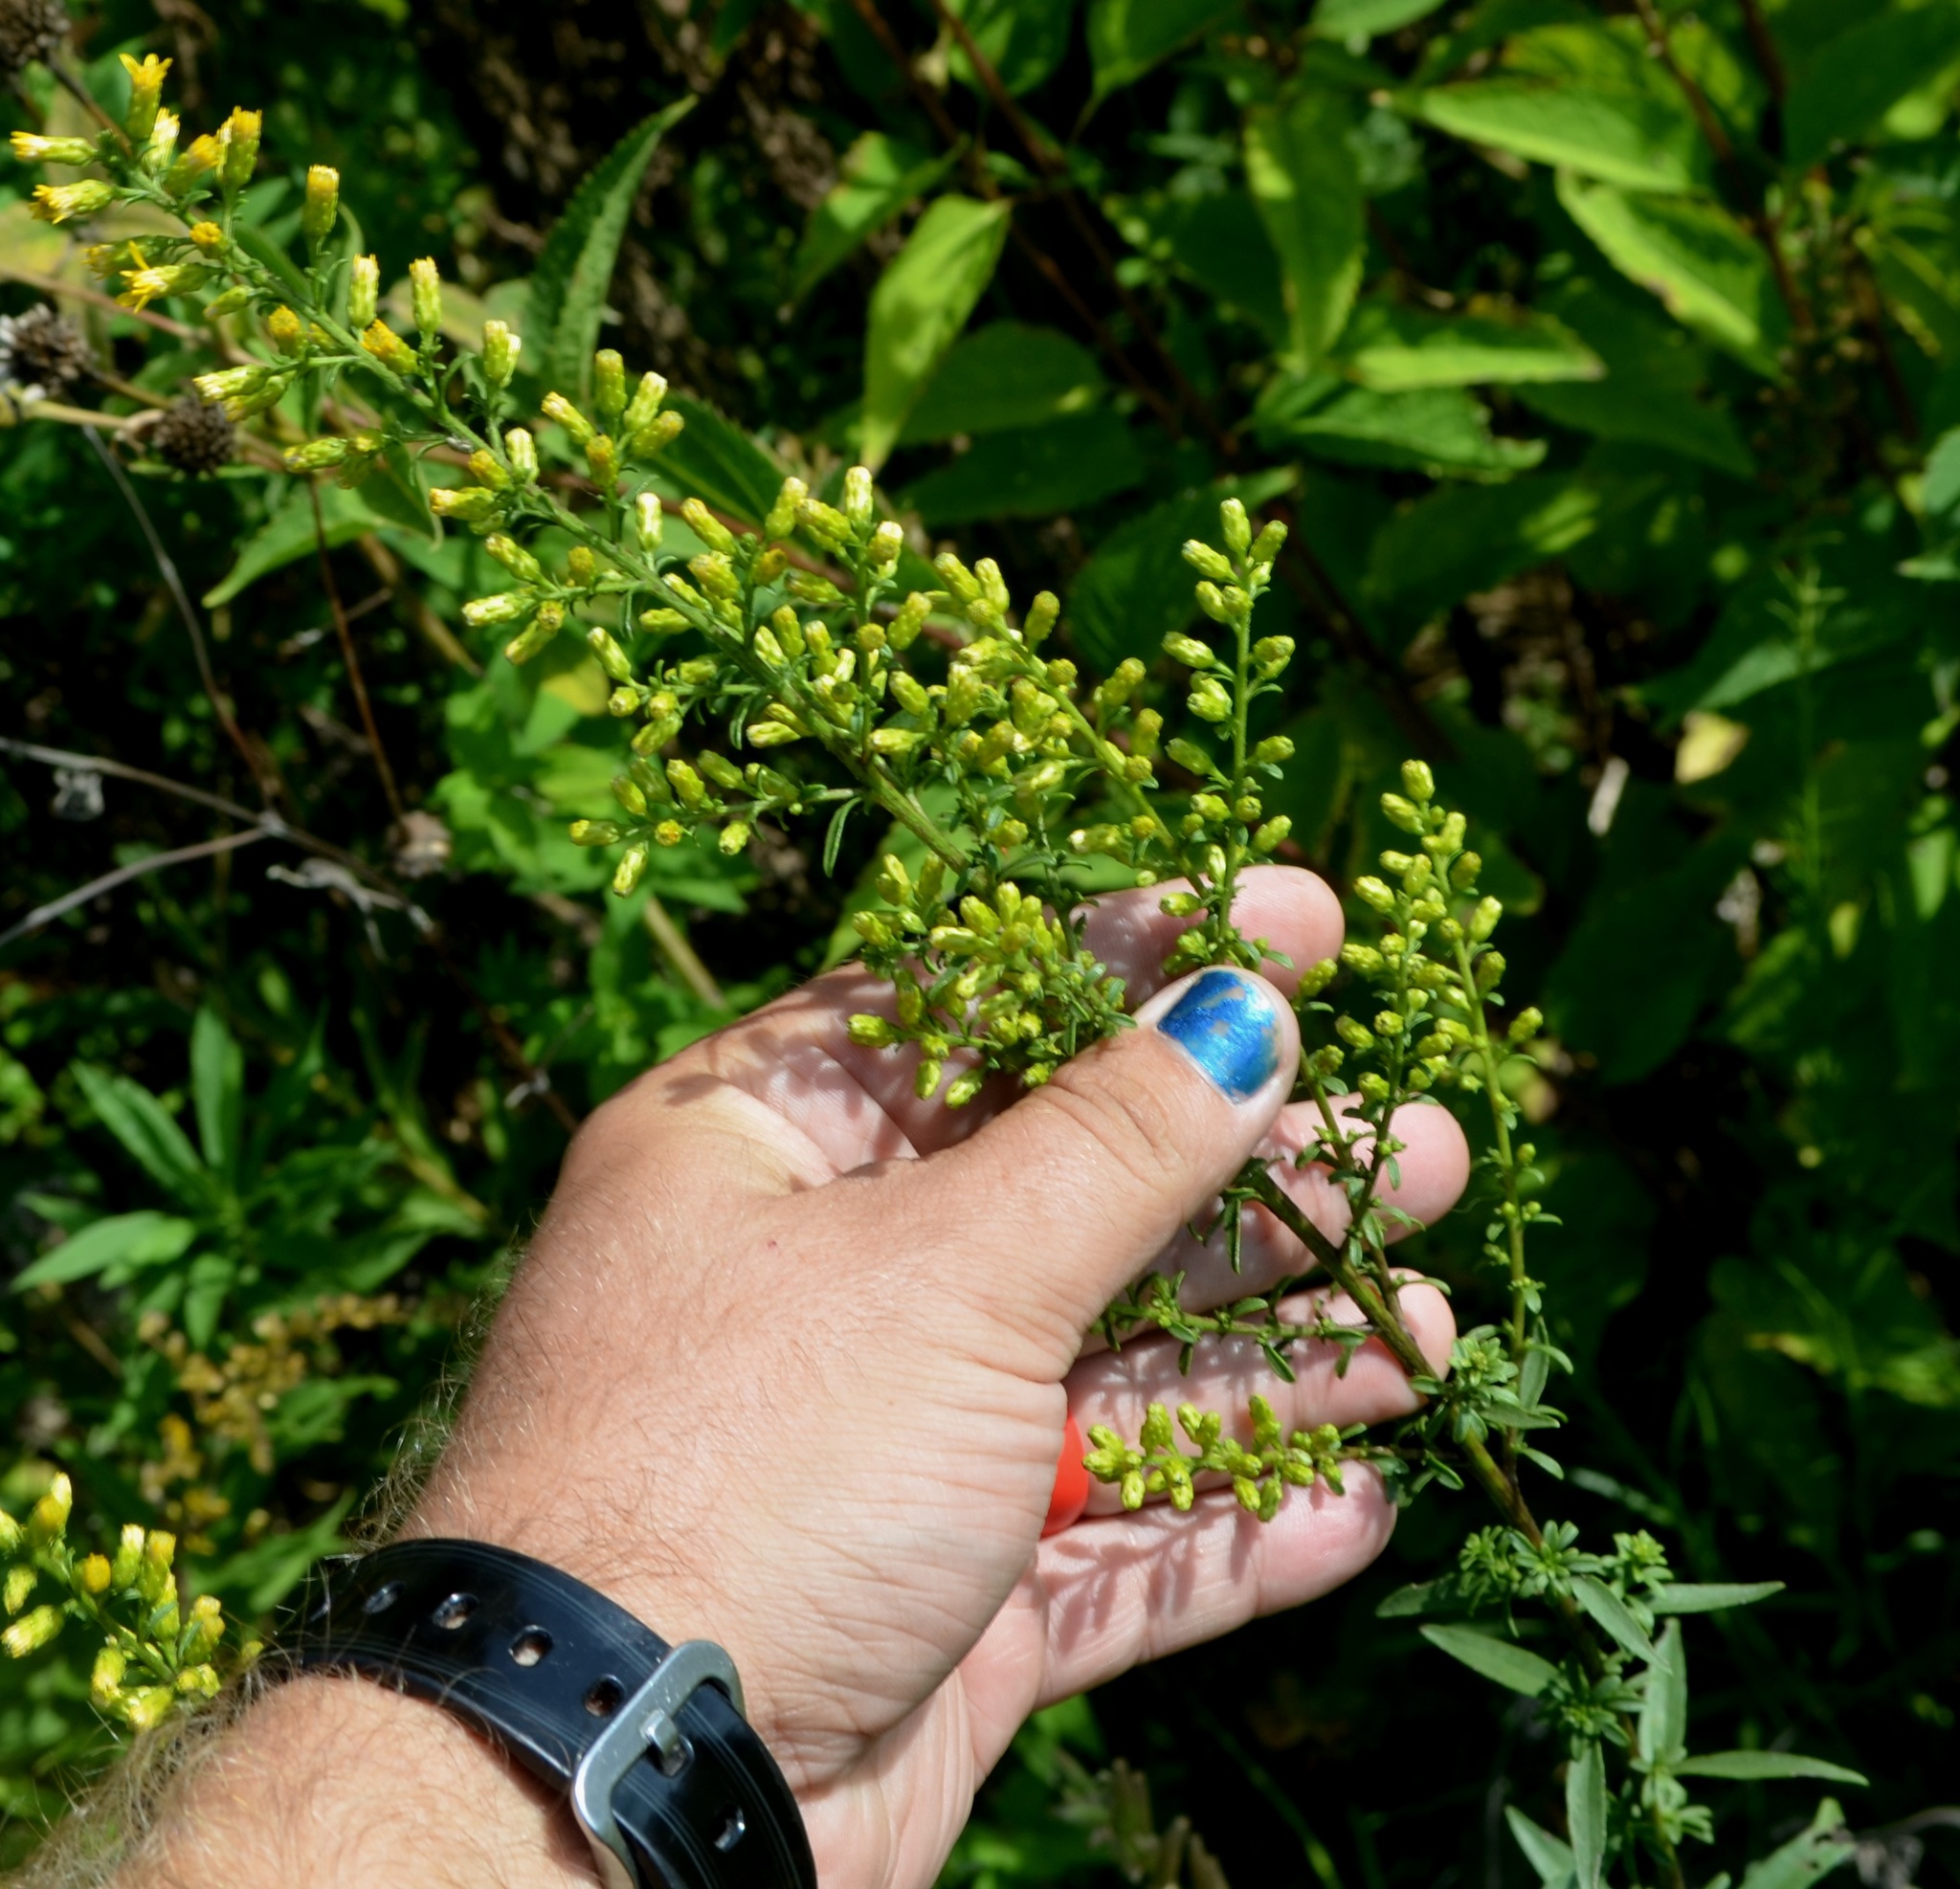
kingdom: Plantae
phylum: Tracheophyta
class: Magnoliopsida
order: Asterales
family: Asteraceae
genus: Solidago
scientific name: Solidago rigidiuscula
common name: Stiff-leaved showy goldenrod
